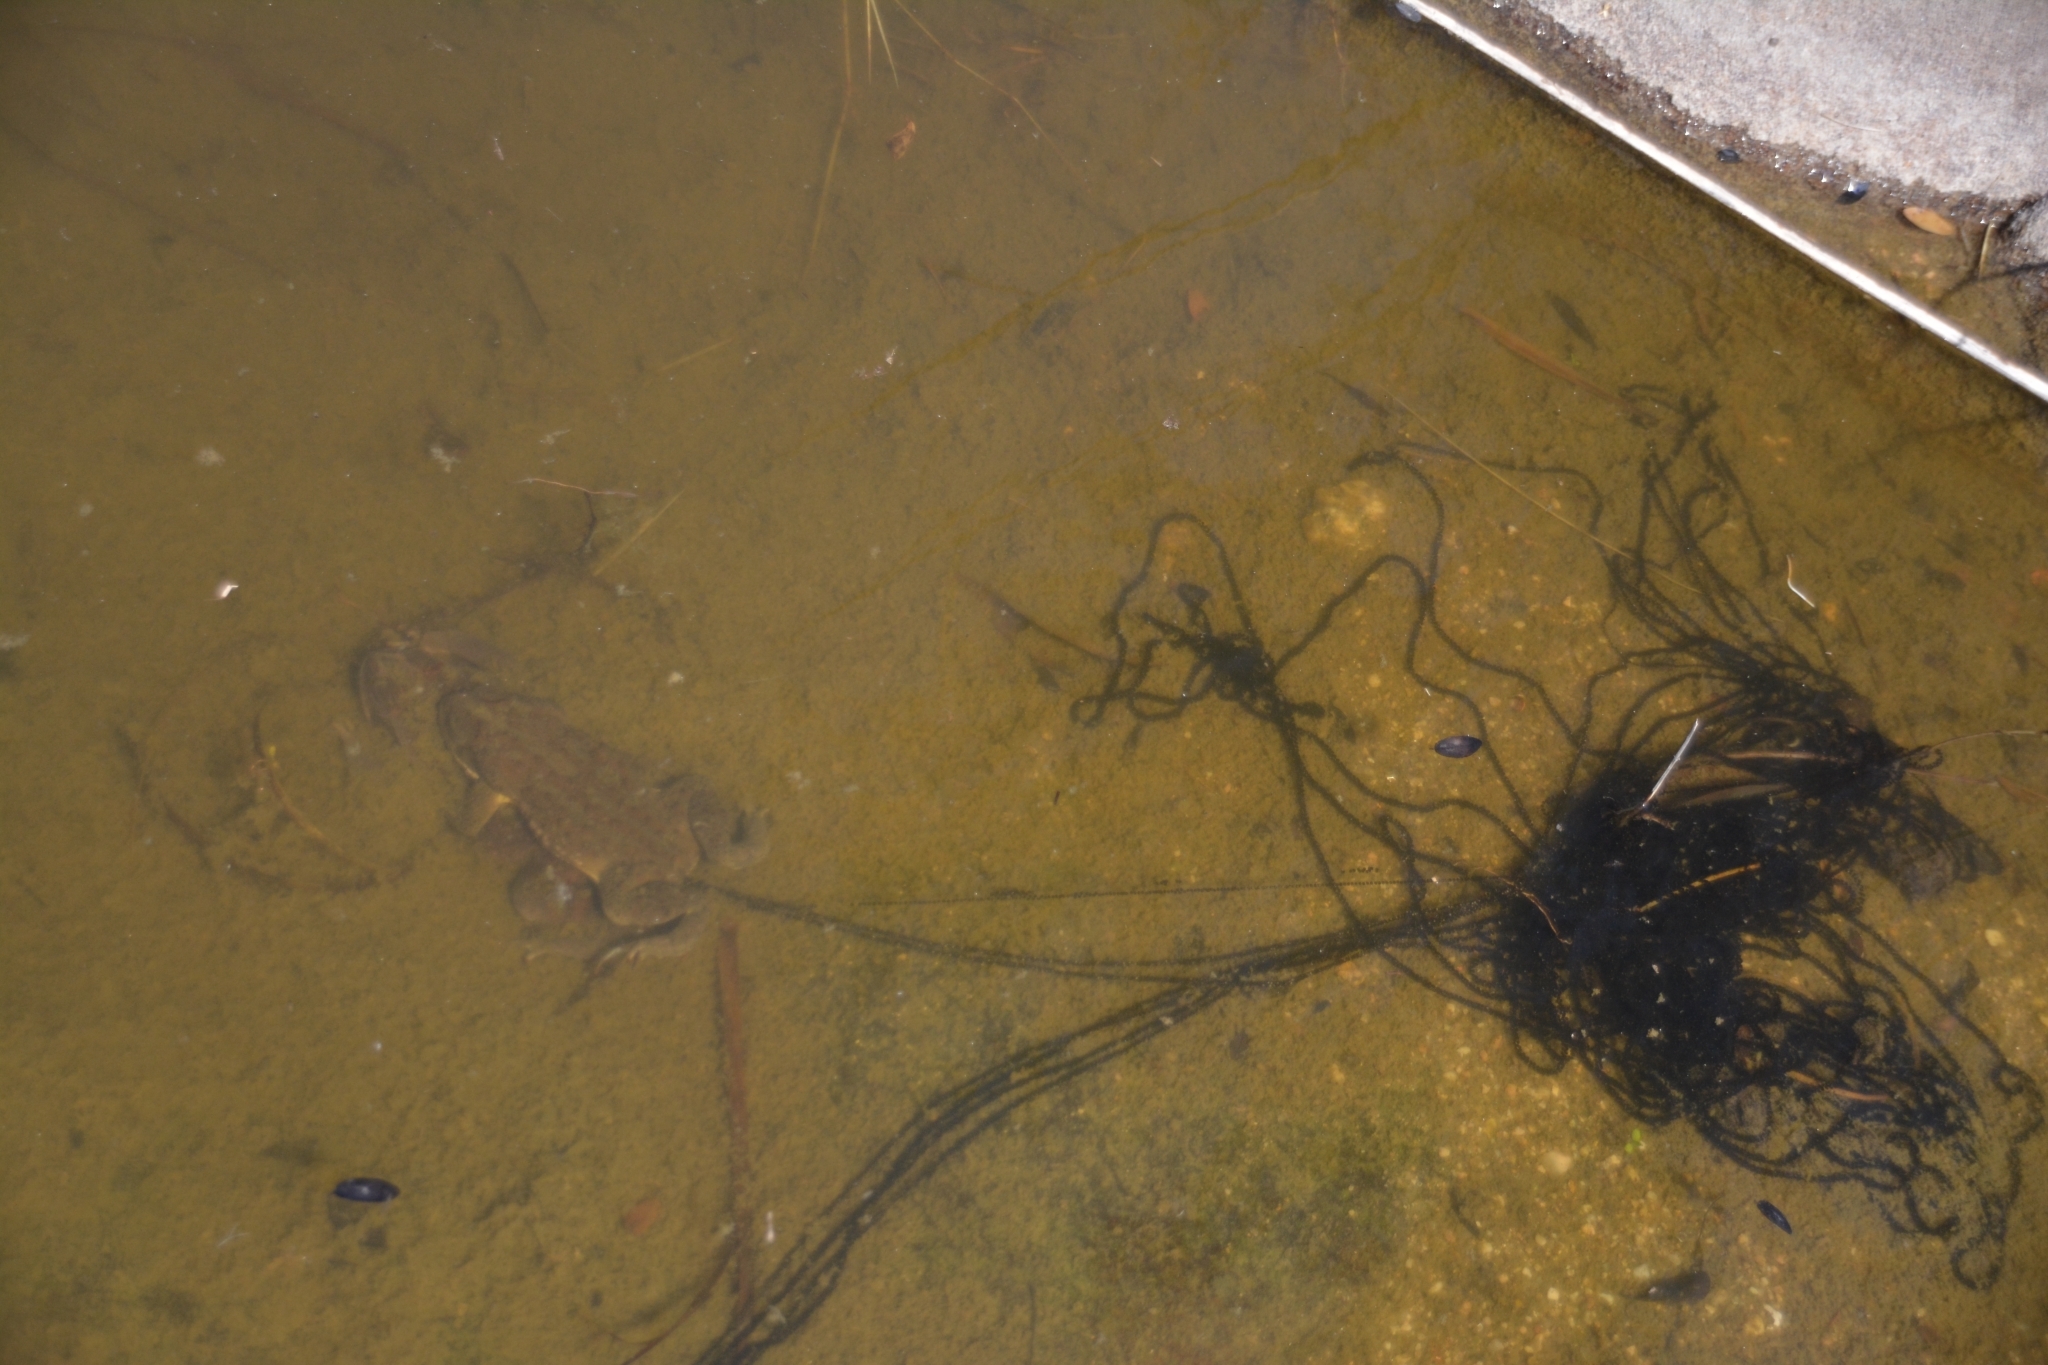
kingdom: Animalia
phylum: Chordata
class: Amphibia
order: Anura
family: Bufonidae
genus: Rhinella
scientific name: Rhinella arenarum
